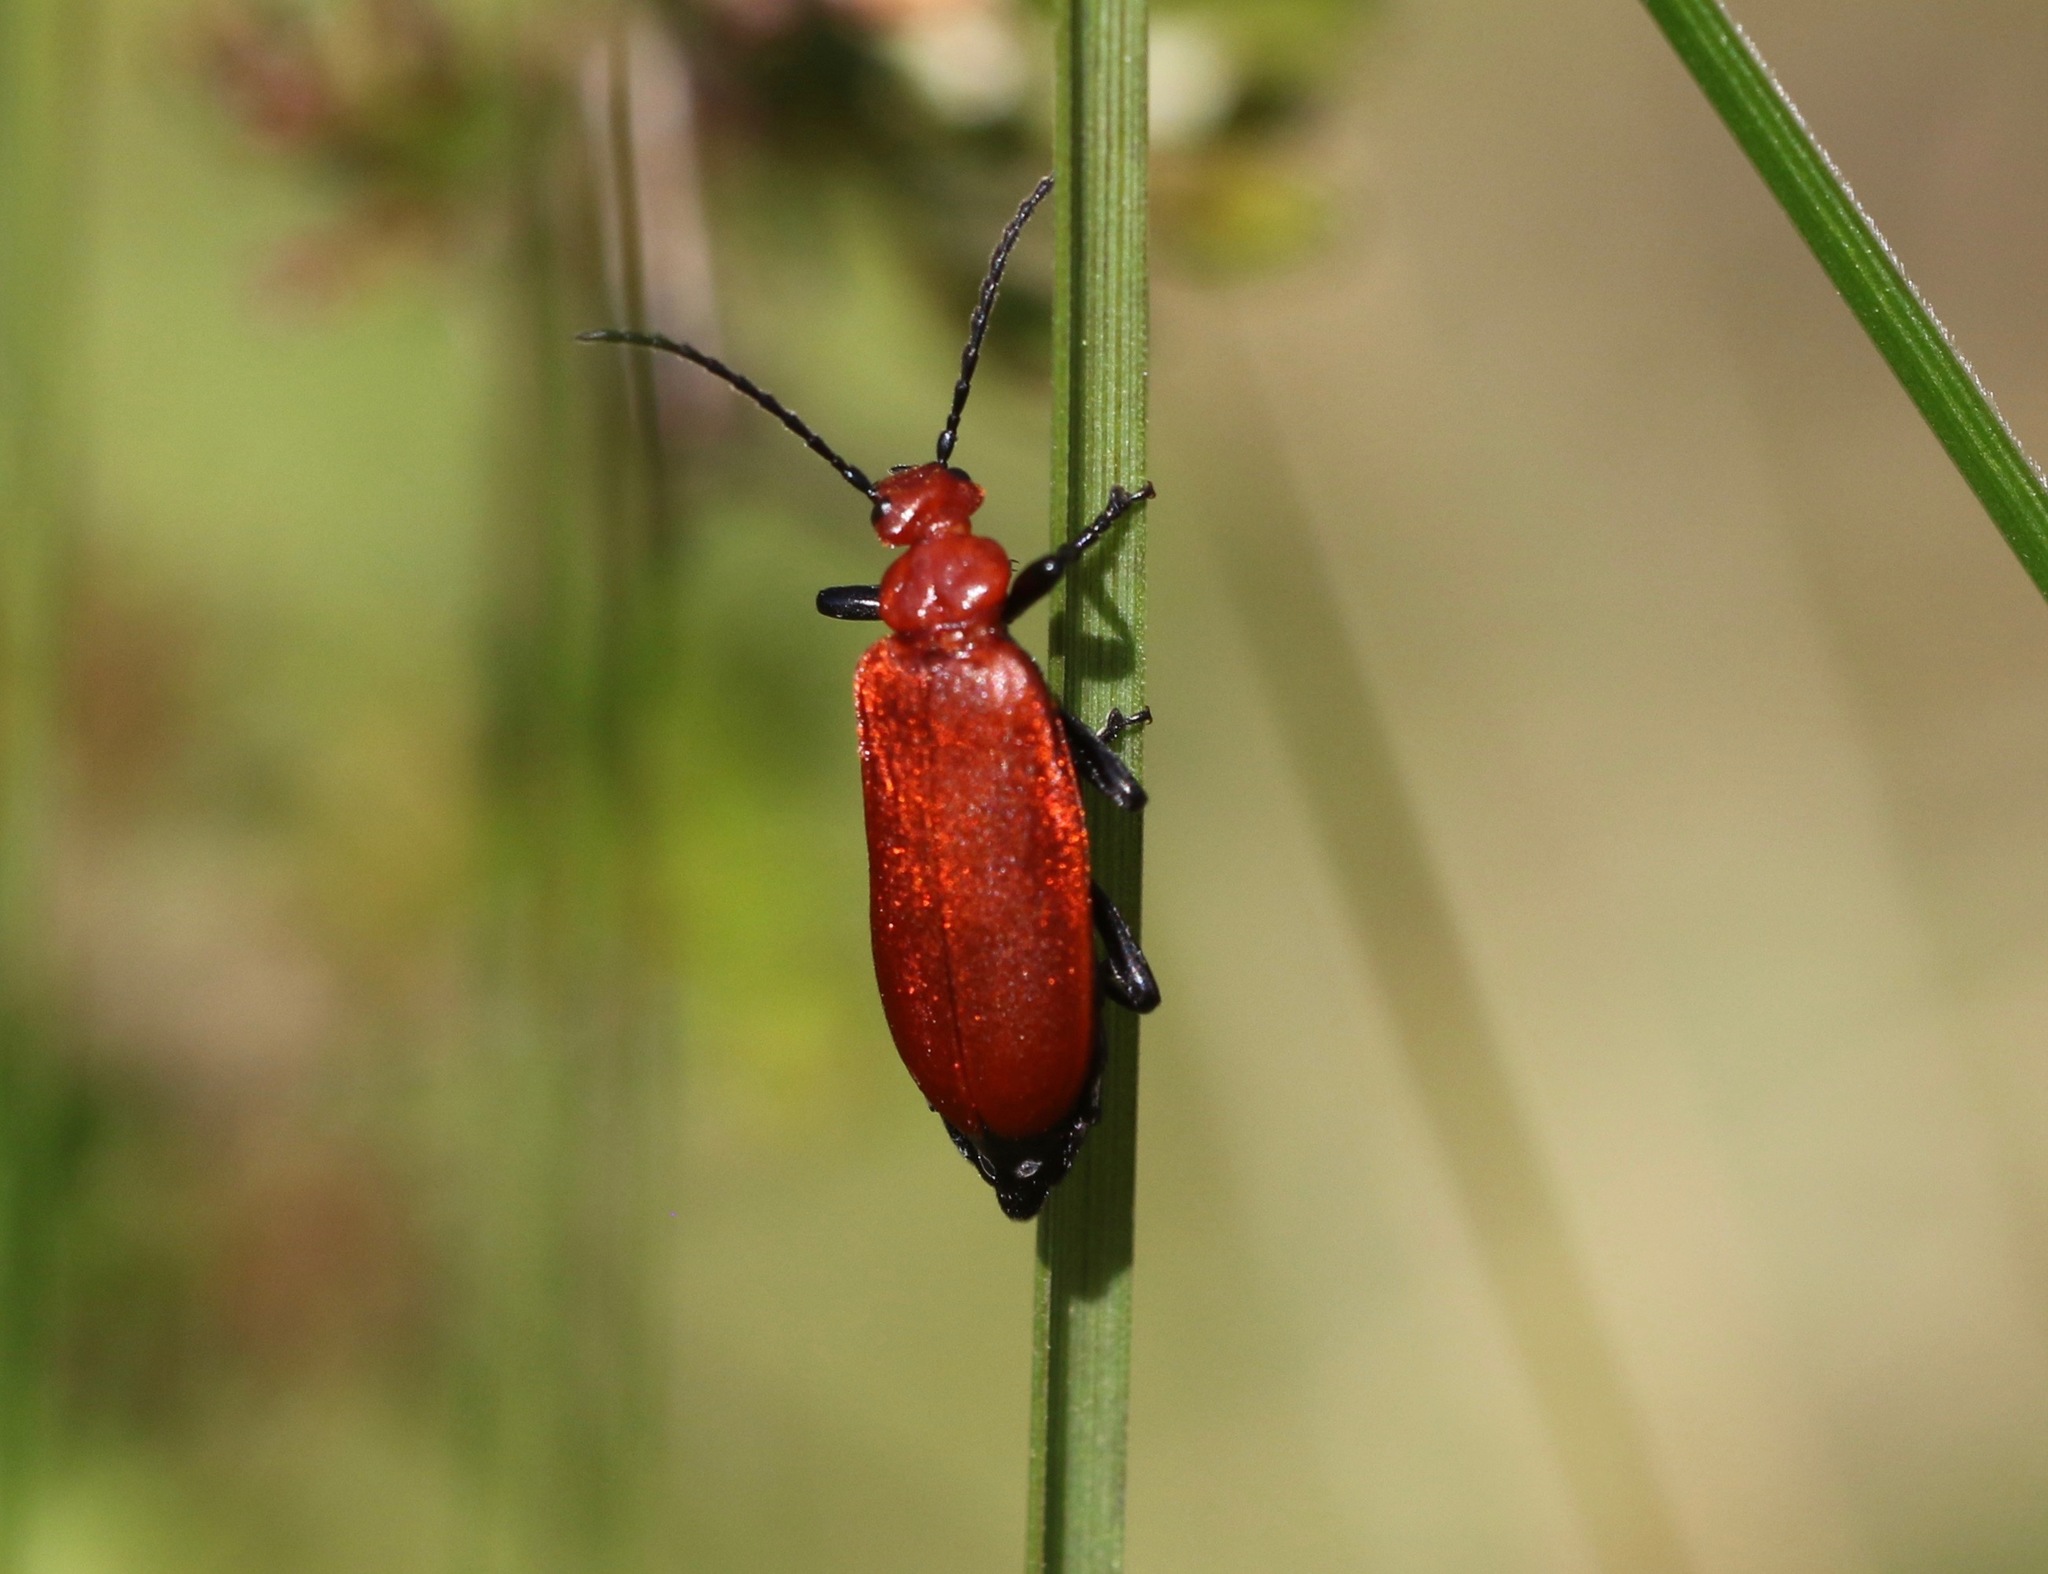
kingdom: Animalia
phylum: Arthropoda
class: Insecta
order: Coleoptera
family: Pyrochroidae
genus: Pyrochroa
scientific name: Pyrochroa serraticornis
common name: Red-headed cardinal beetle
